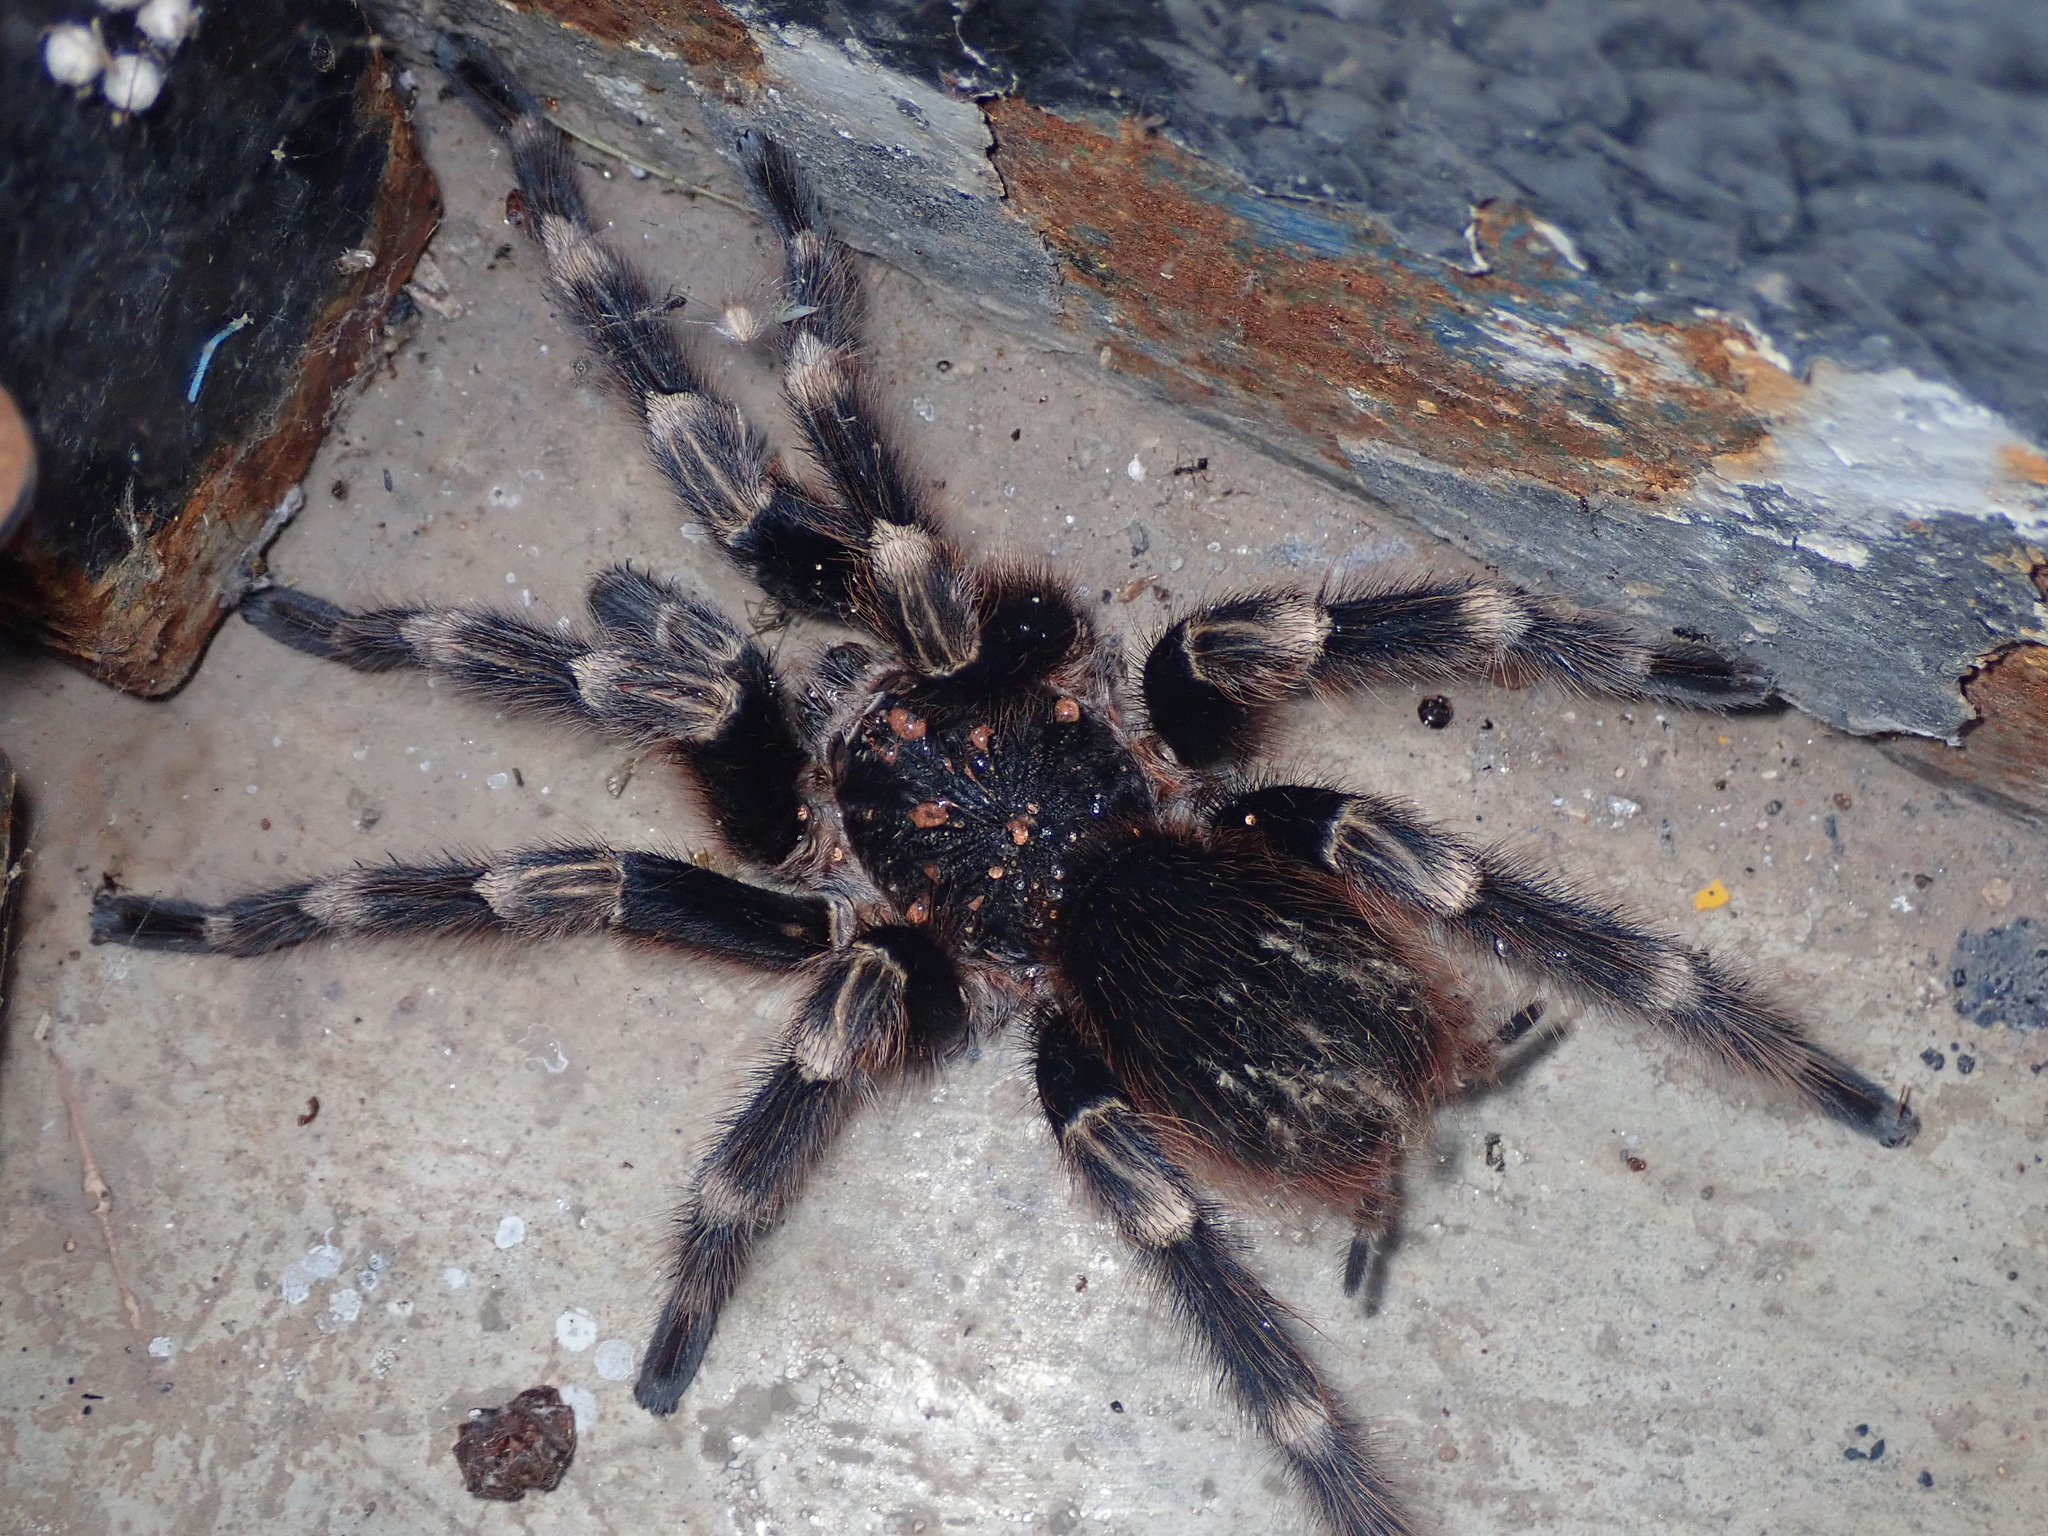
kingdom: Animalia
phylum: Arthropoda
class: Arachnida
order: Araneae
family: Theraphosidae
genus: Nhandu
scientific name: Nhandu coloratovillosus
